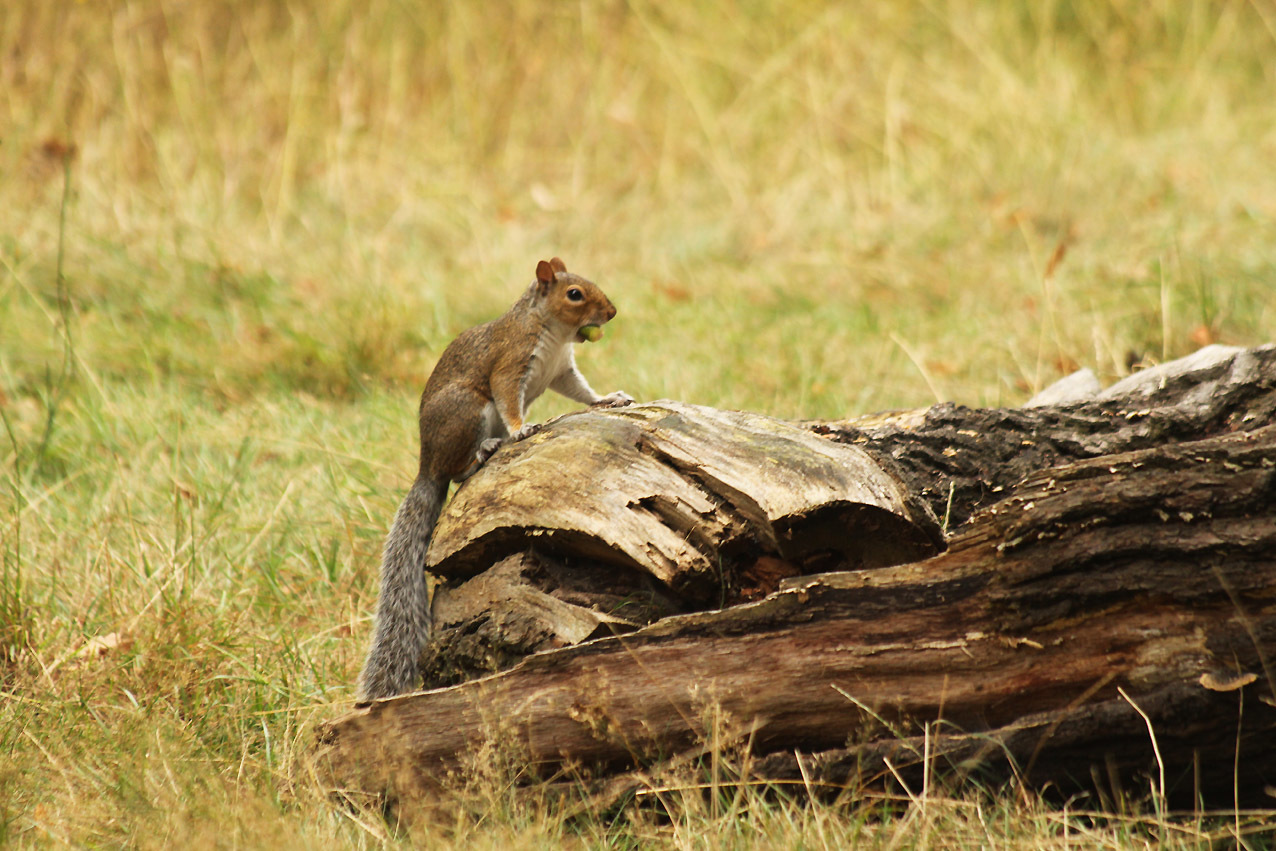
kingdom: Animalia
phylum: Chordata
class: Mammalia
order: Rodentia
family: Sciuridae
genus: Sciurus
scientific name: Sciurus carolinensis
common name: Eastern gray squirrel
